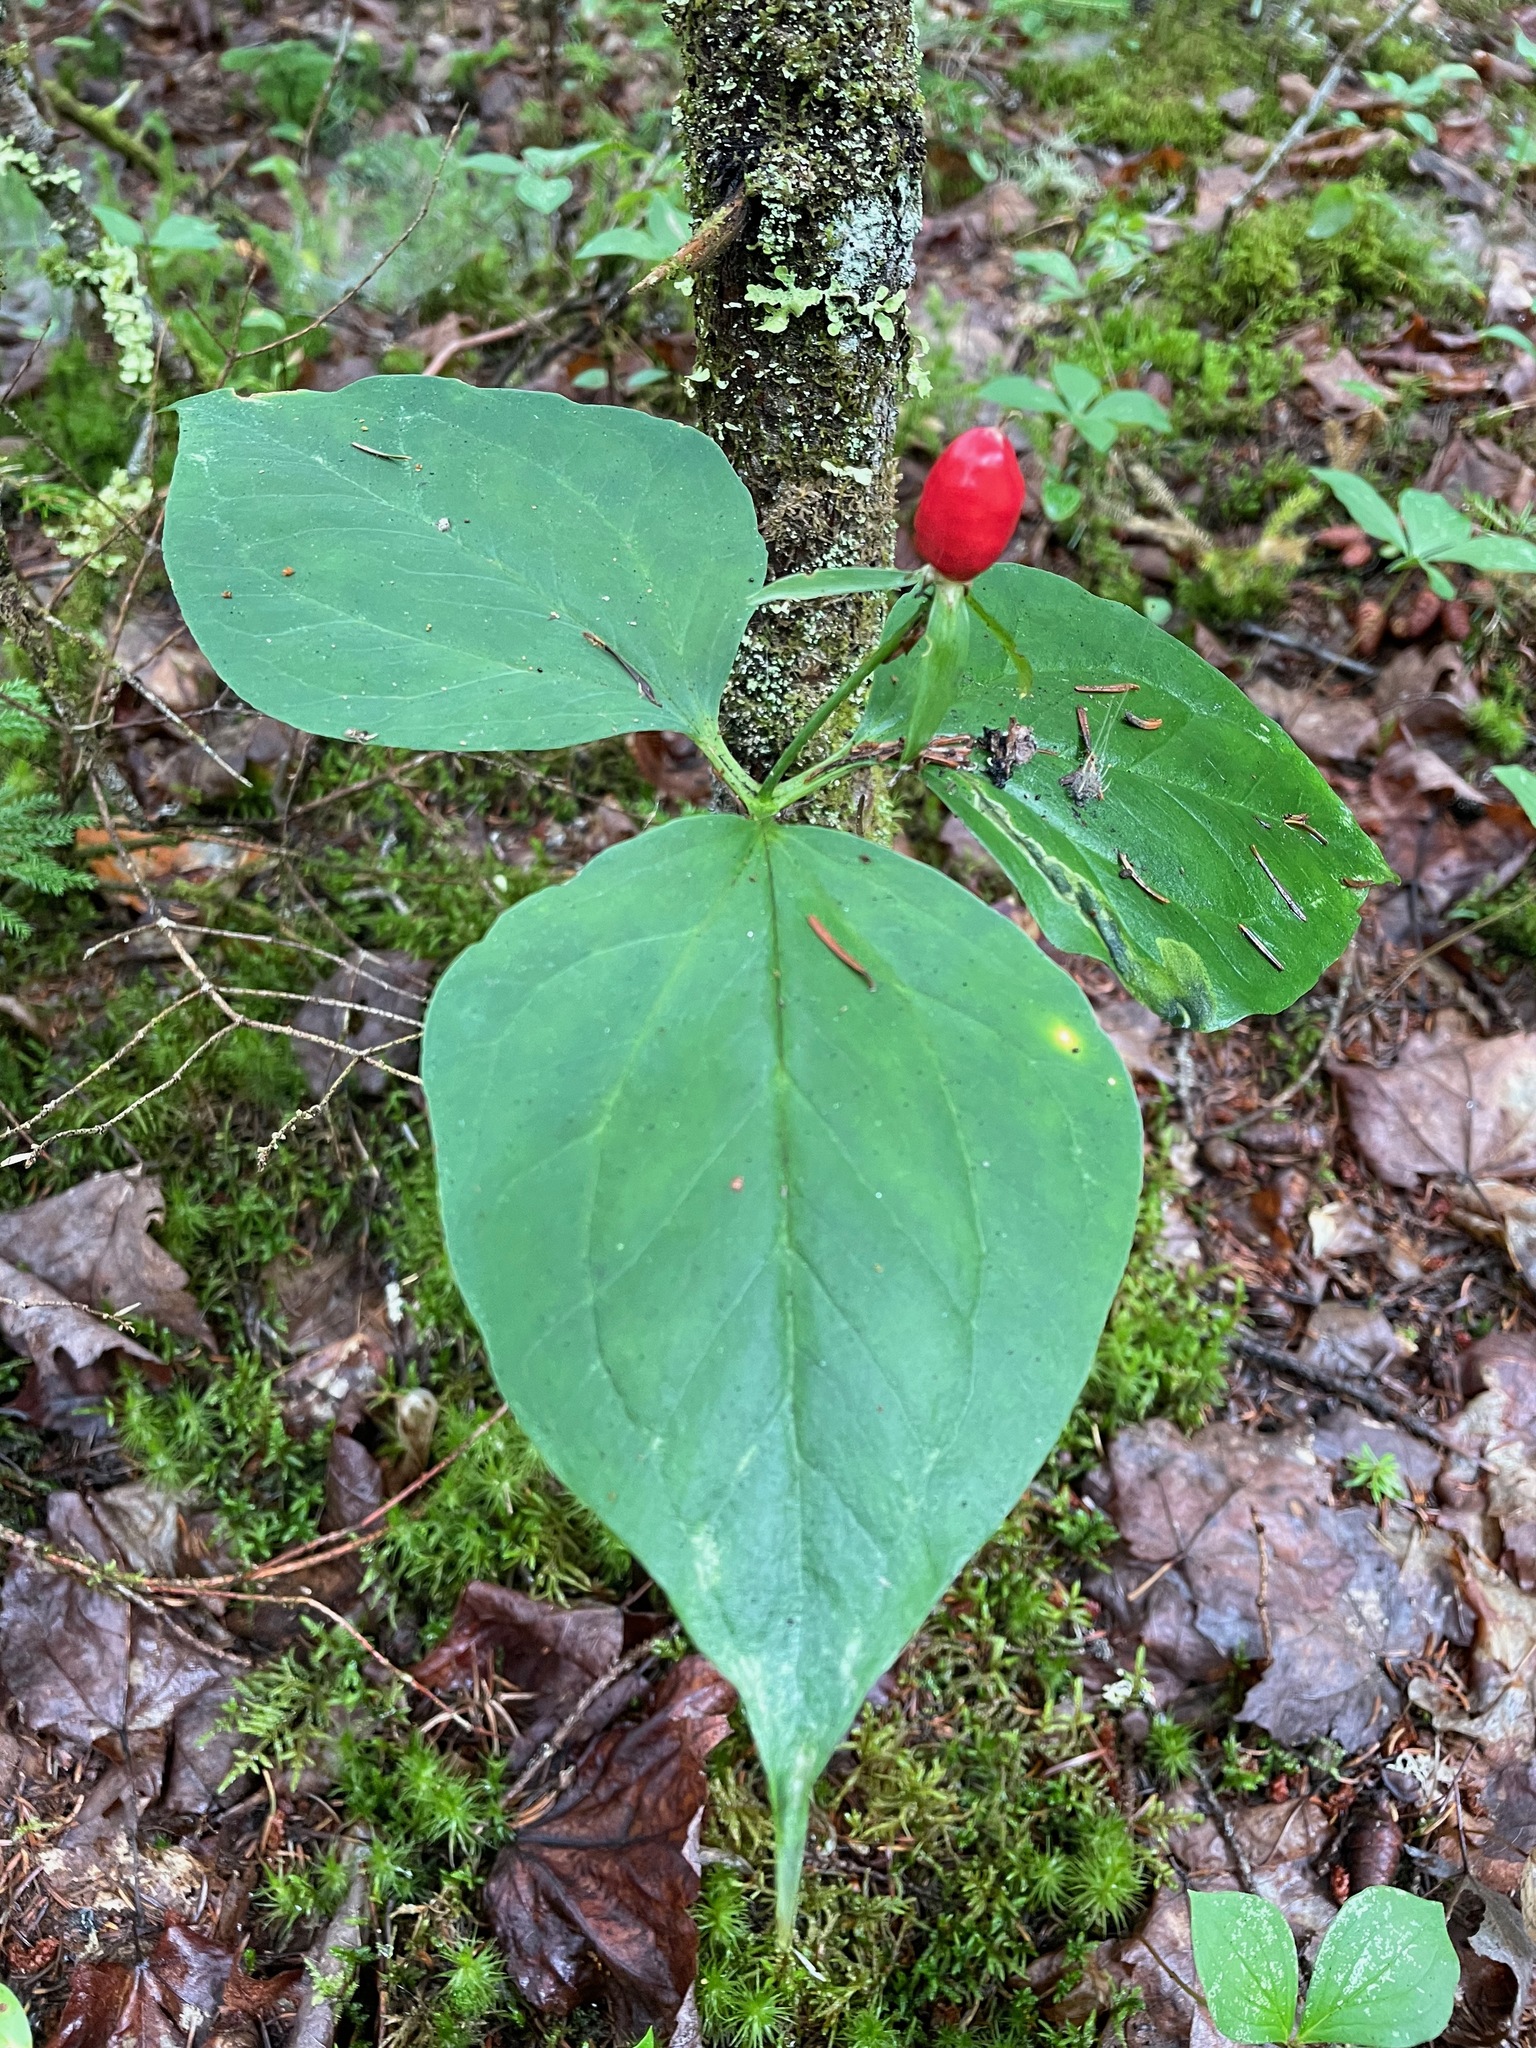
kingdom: Plantae
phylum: Tracheophyta
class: Liliopsida
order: Liliales
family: Melanthiaceae
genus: Trillium
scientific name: Trillium undulatum
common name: Paint trillium
